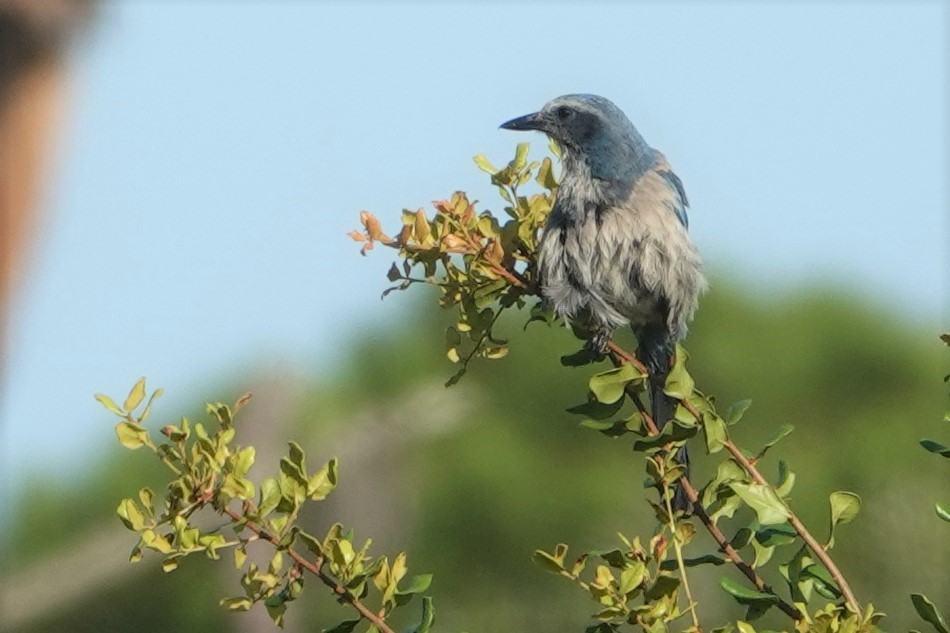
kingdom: Animalia
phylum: Chordata
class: Aves
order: Passeriformes
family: Corvidae
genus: Aphelocoma
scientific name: Aphelocoma coerulescens
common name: Florida scrub jay
